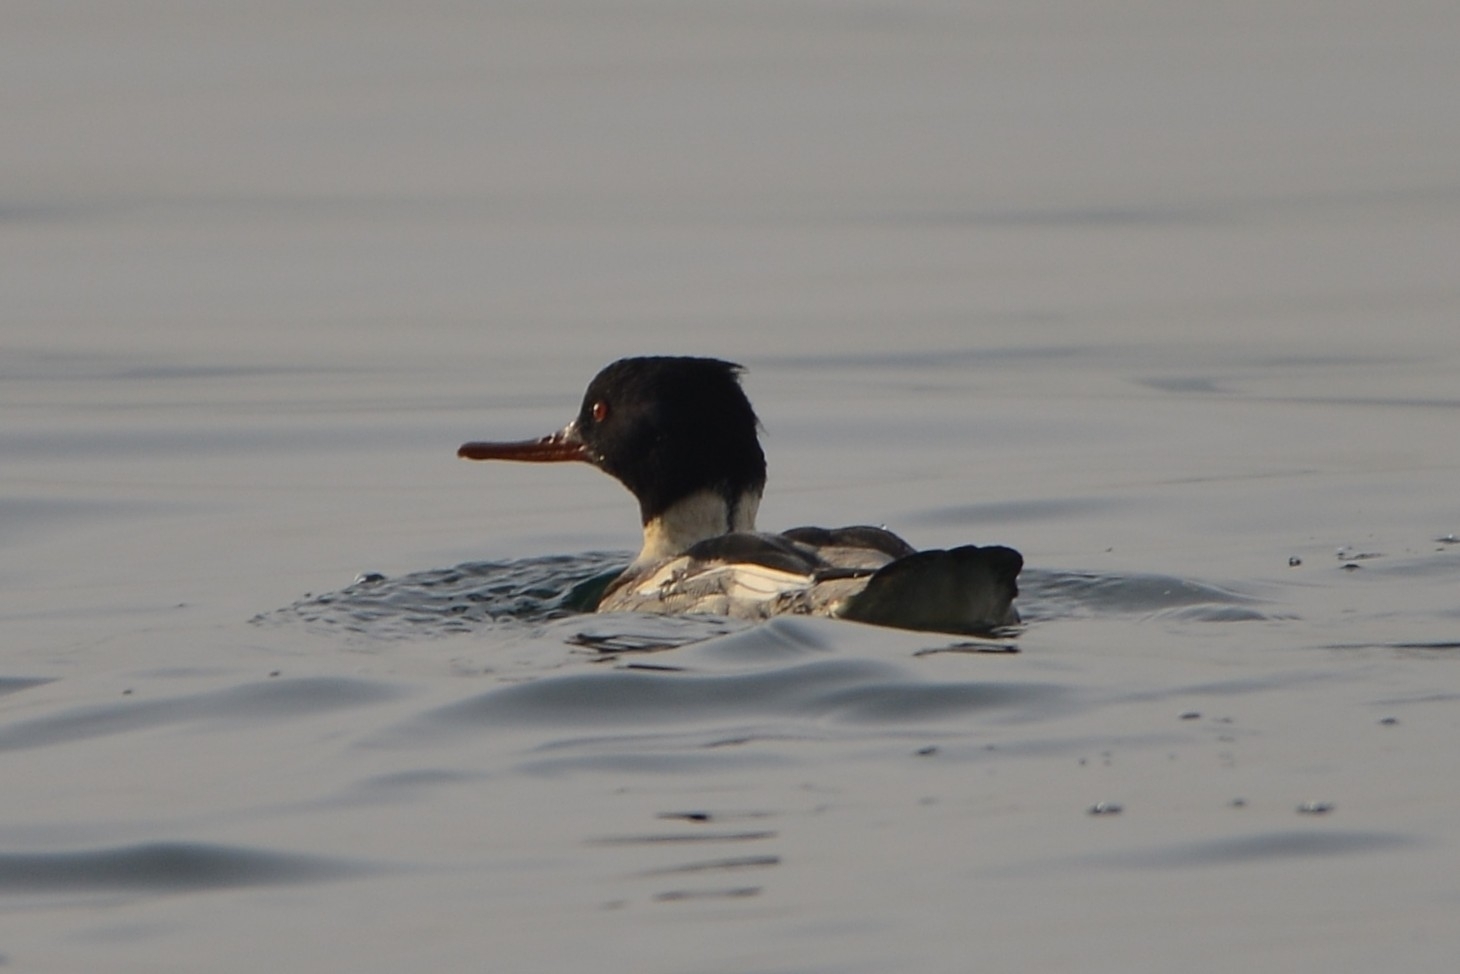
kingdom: Animalia
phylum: Chordata
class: Aves
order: Anseriformes
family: Anatidae
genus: Mergus
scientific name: Mergus serrator
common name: Red-breasted merganser
